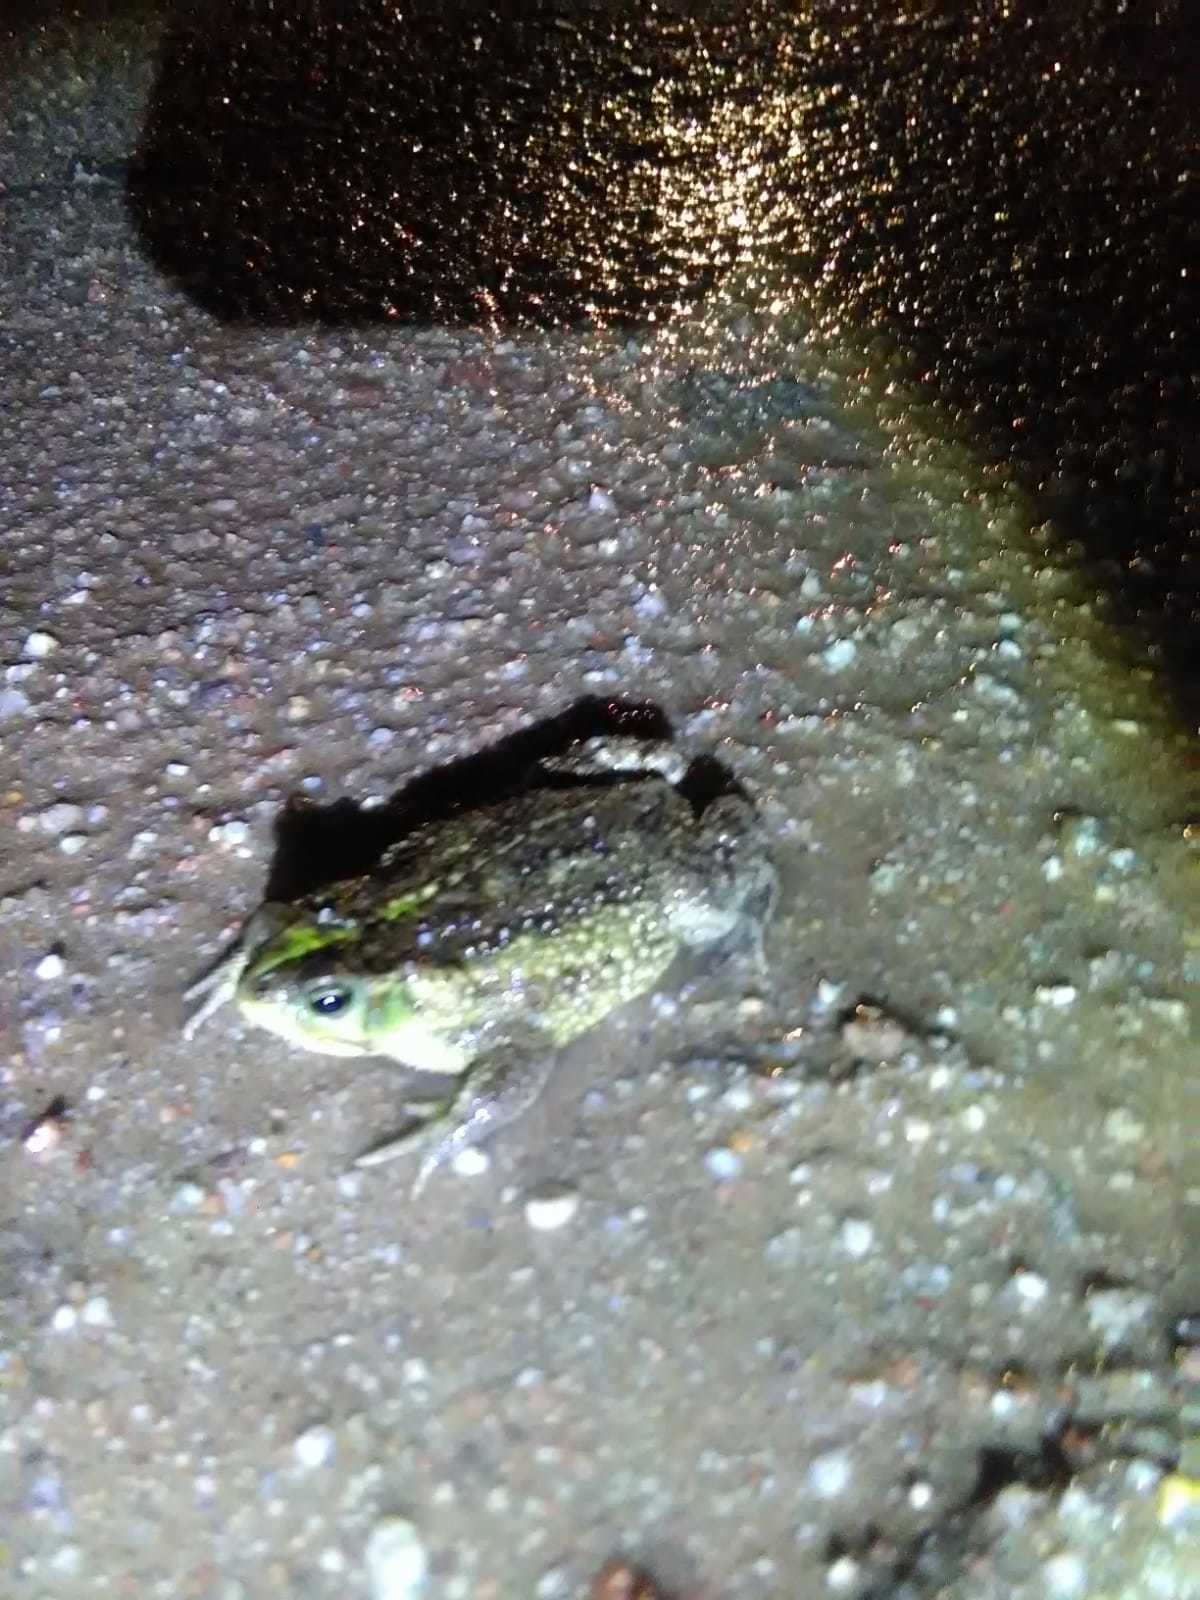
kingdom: Animalia
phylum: Chordata
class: Amphibia
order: Anura
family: Bufonidae
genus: Rhinella
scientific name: Rhinella dorbignyi
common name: D´orbigny’s toad
